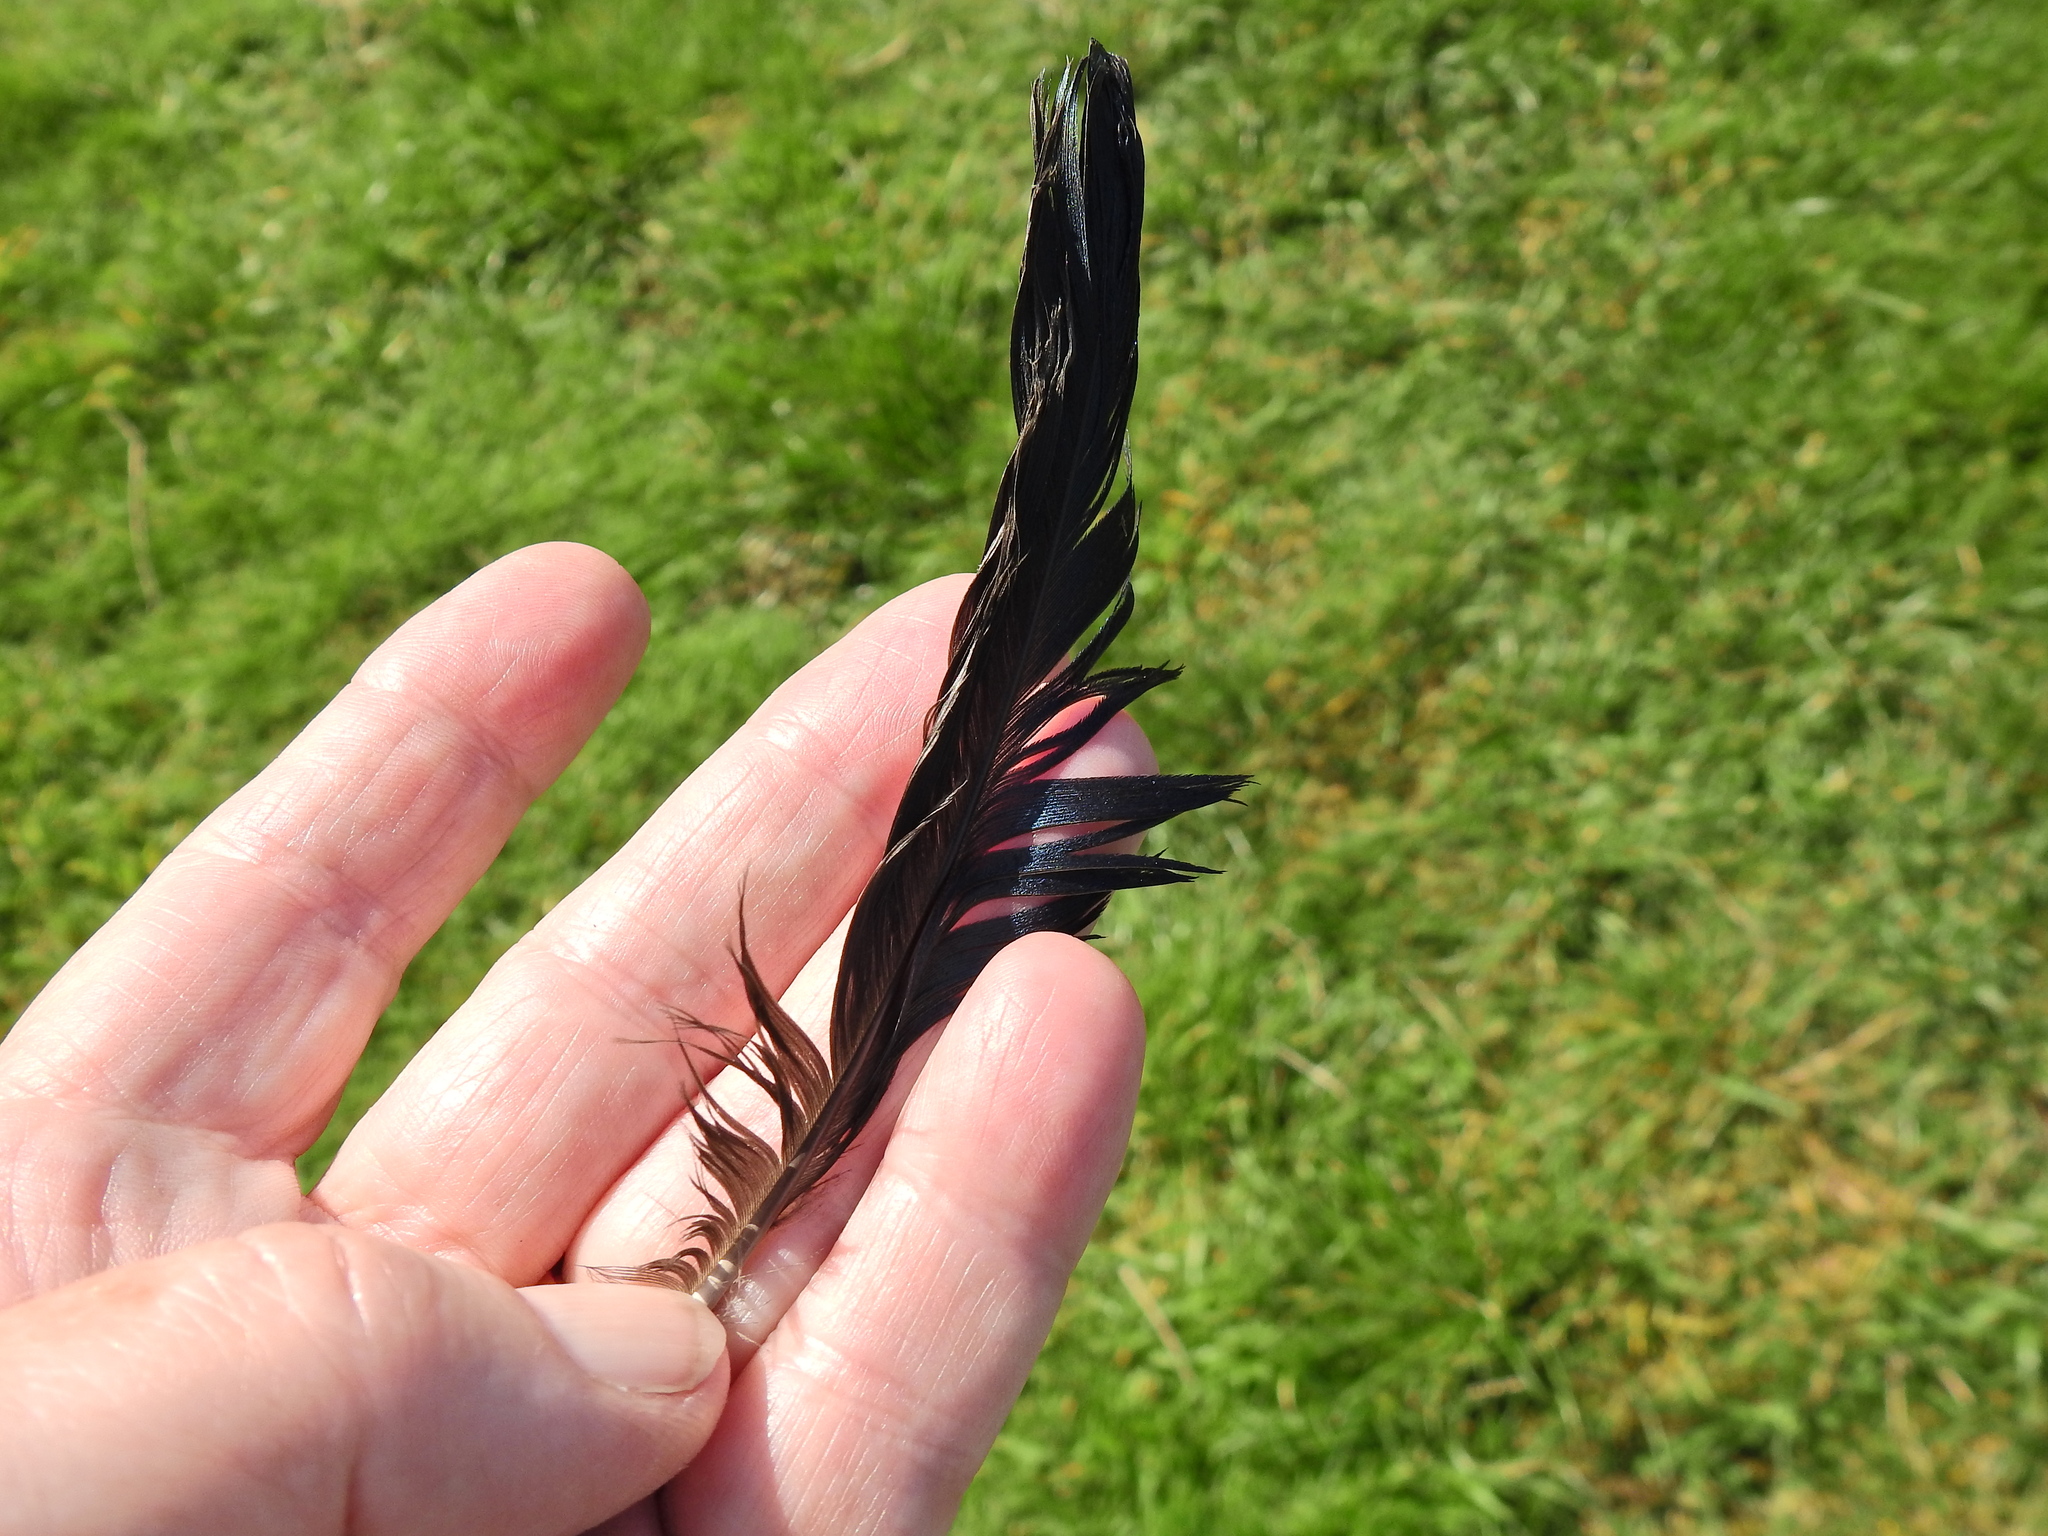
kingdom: Animalia
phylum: Chordata
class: Aves
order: Passeriformes
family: Corvidae
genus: Pica
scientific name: Pica pica
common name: Eurasian magpie
